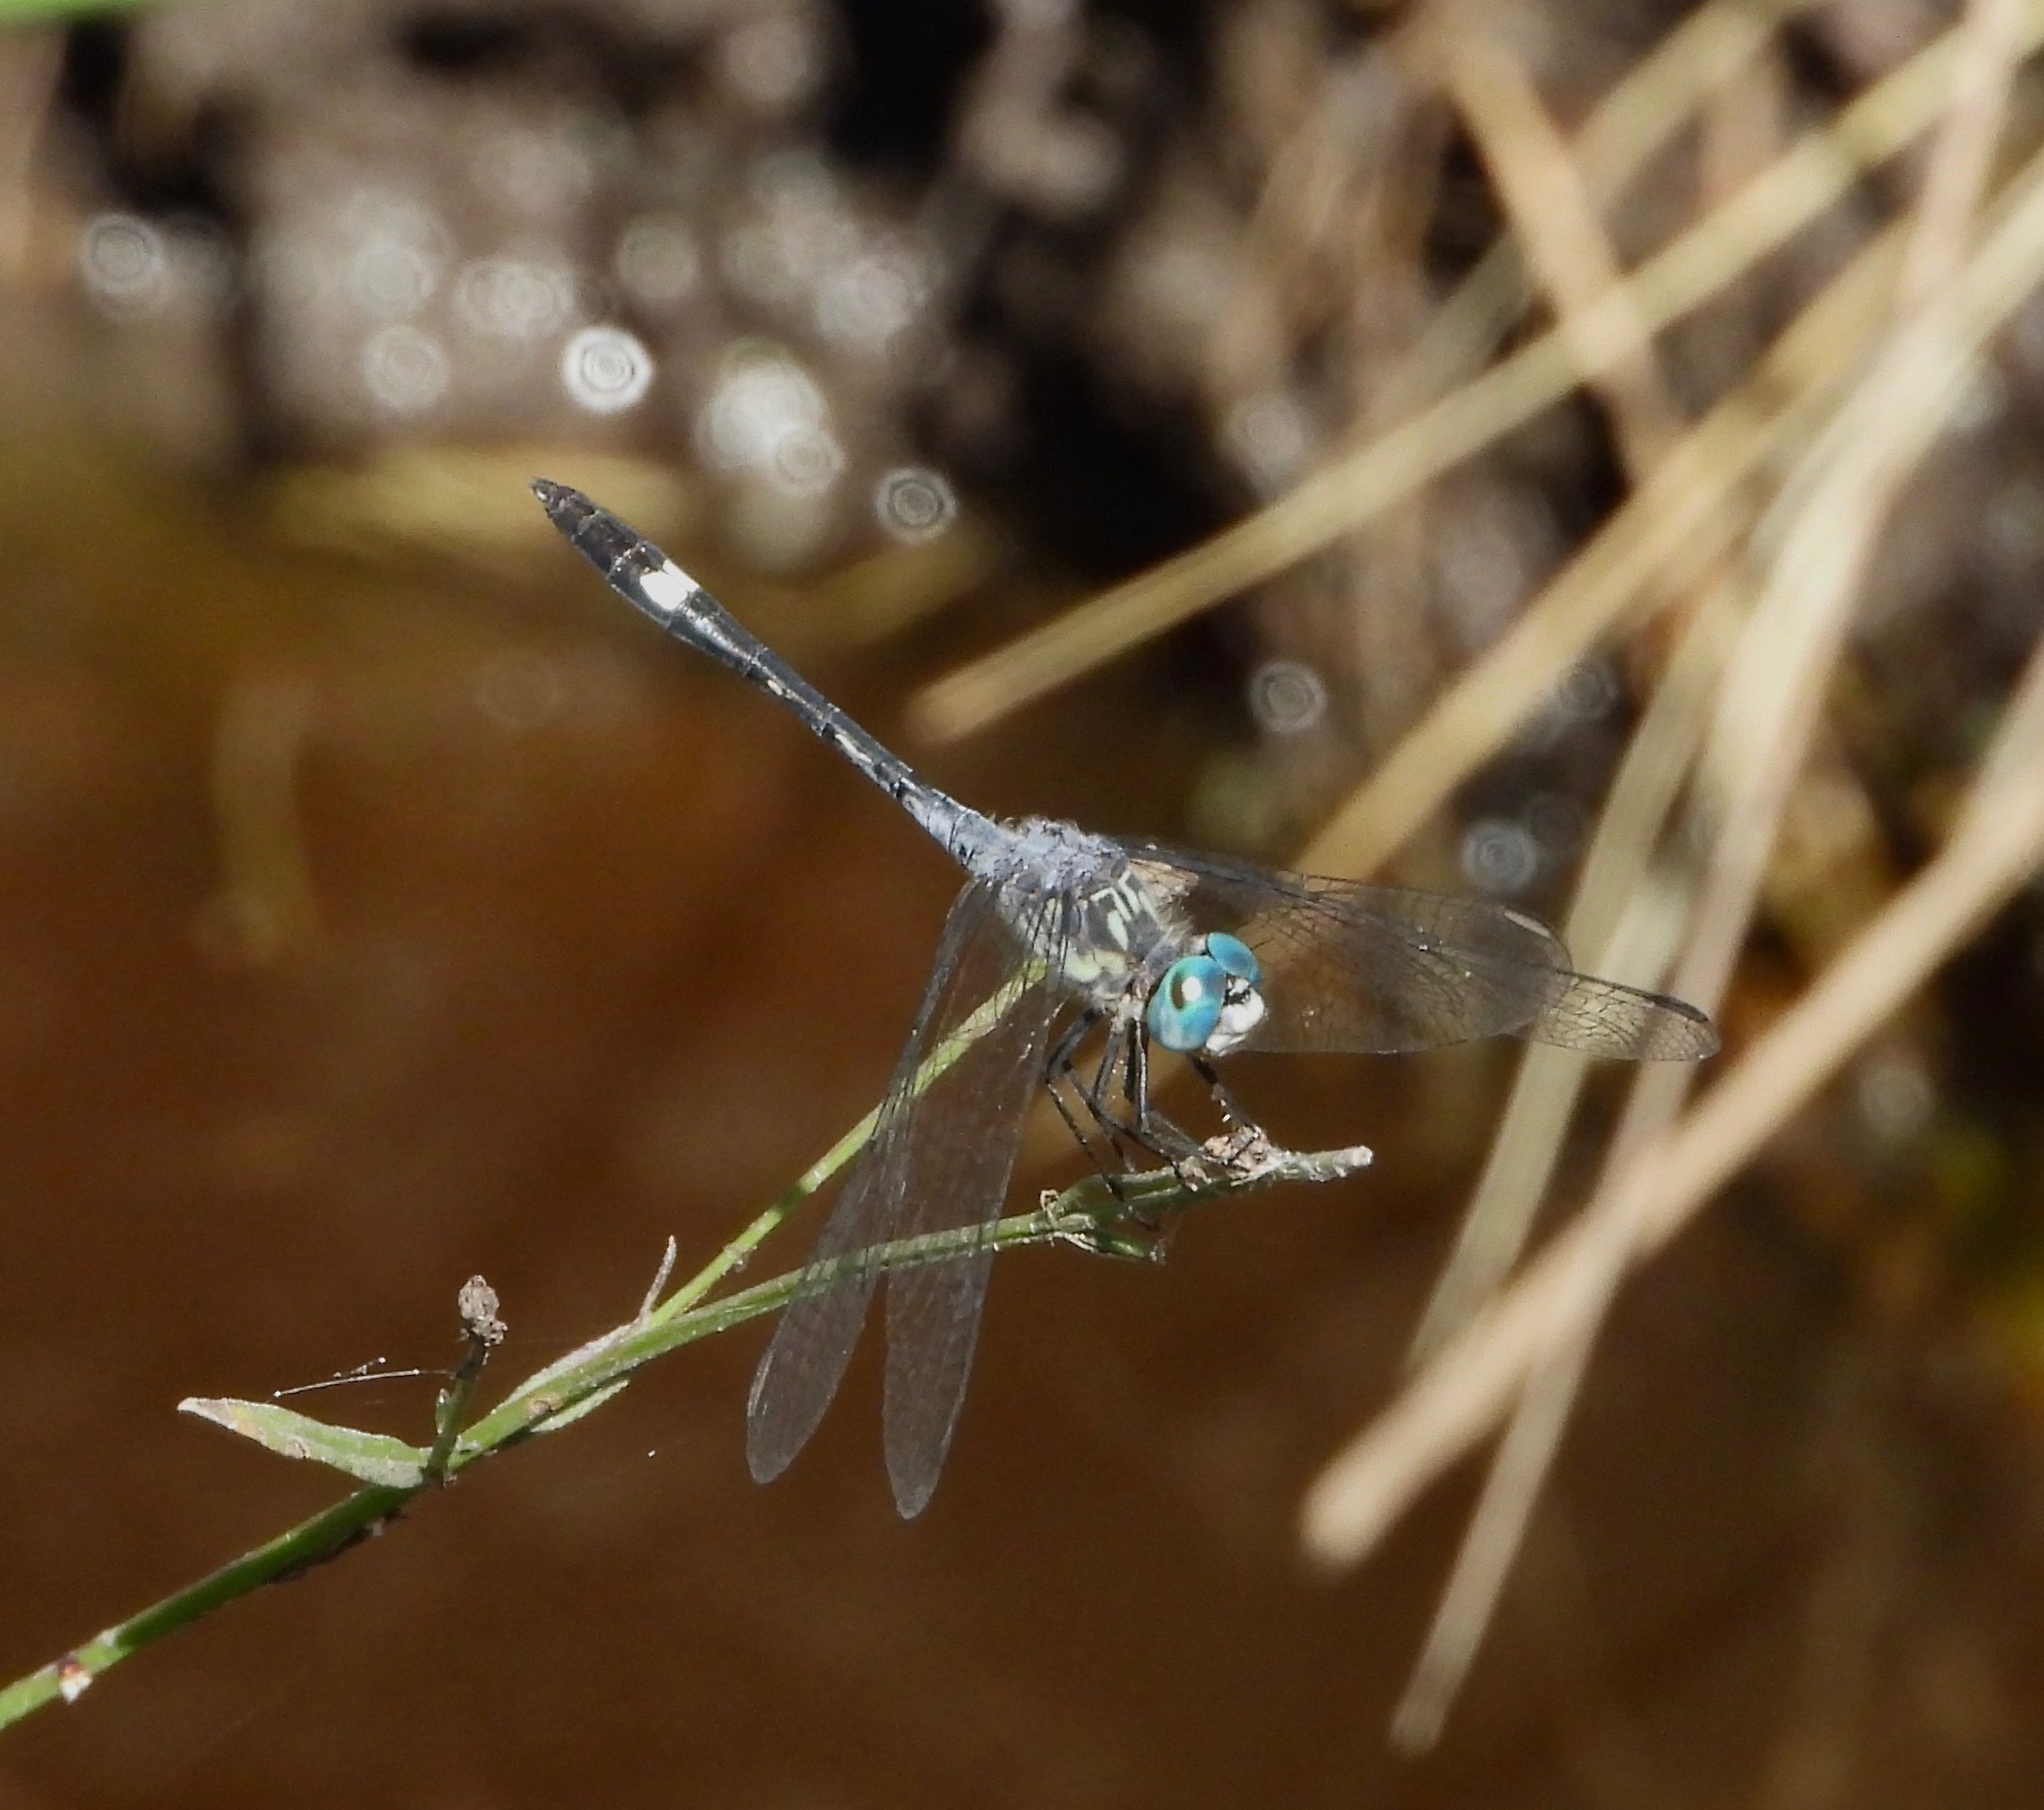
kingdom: Animalia
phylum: Arthropoda
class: Insecta
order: Odonata
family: Libellulidae
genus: Micrathyria
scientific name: Micrathyria longifasciata
